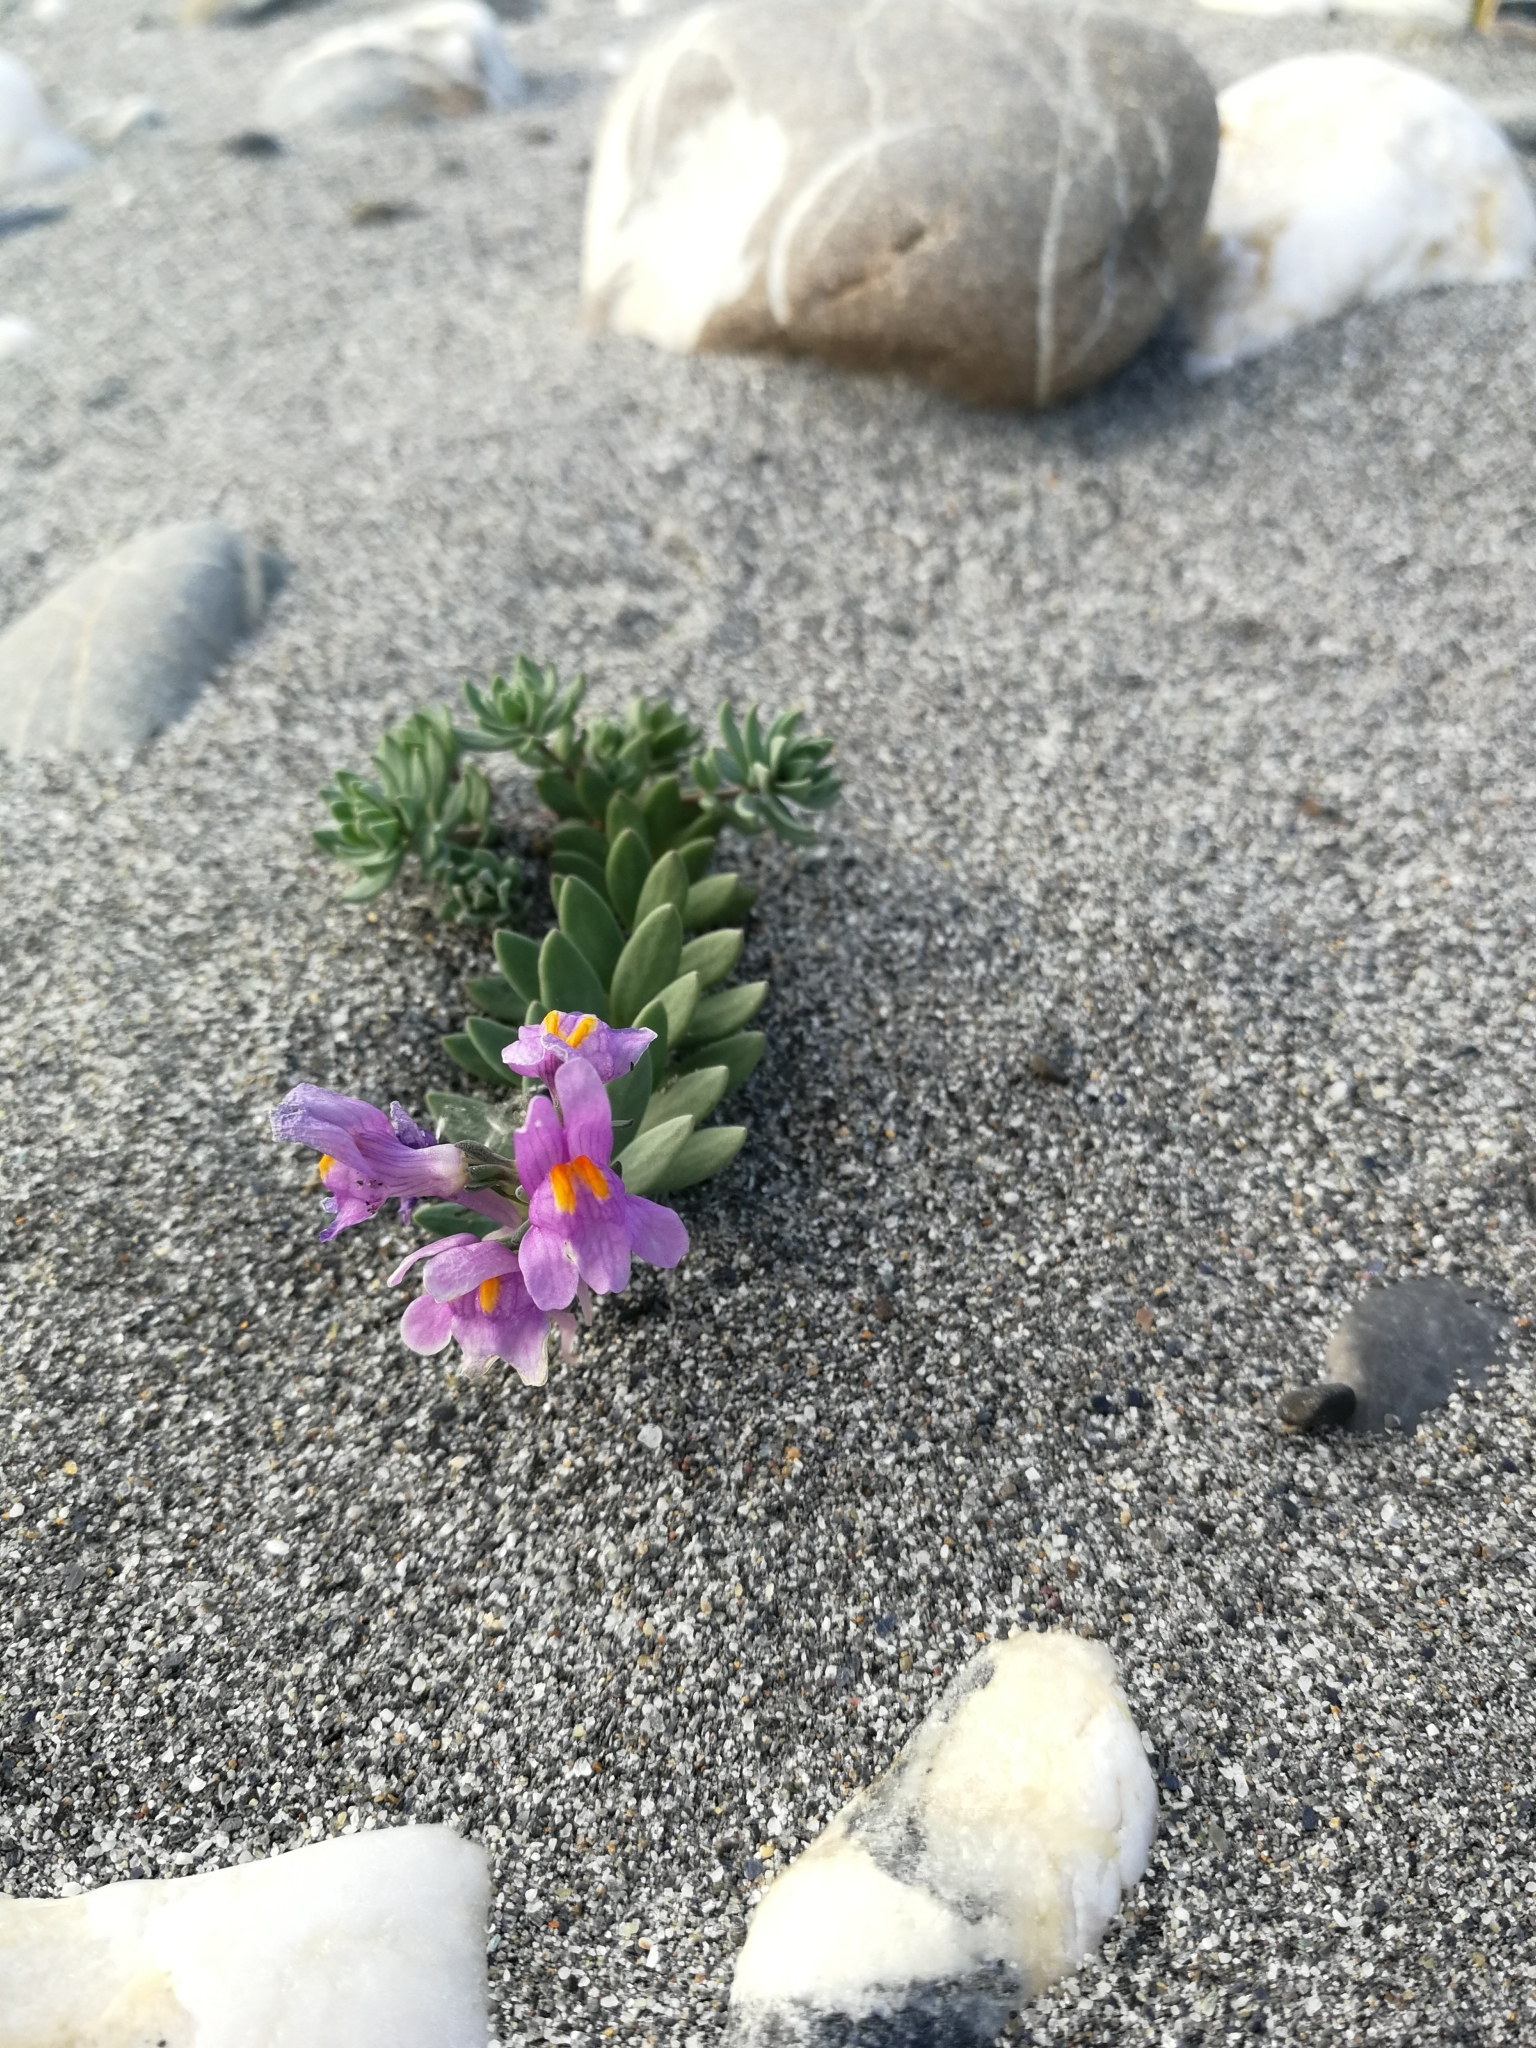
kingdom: Plantae
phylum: Tracheophyta
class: Magnoliopsida
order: Lamiales
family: Plantaginaceae
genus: Linaria
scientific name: Linaria alpina
